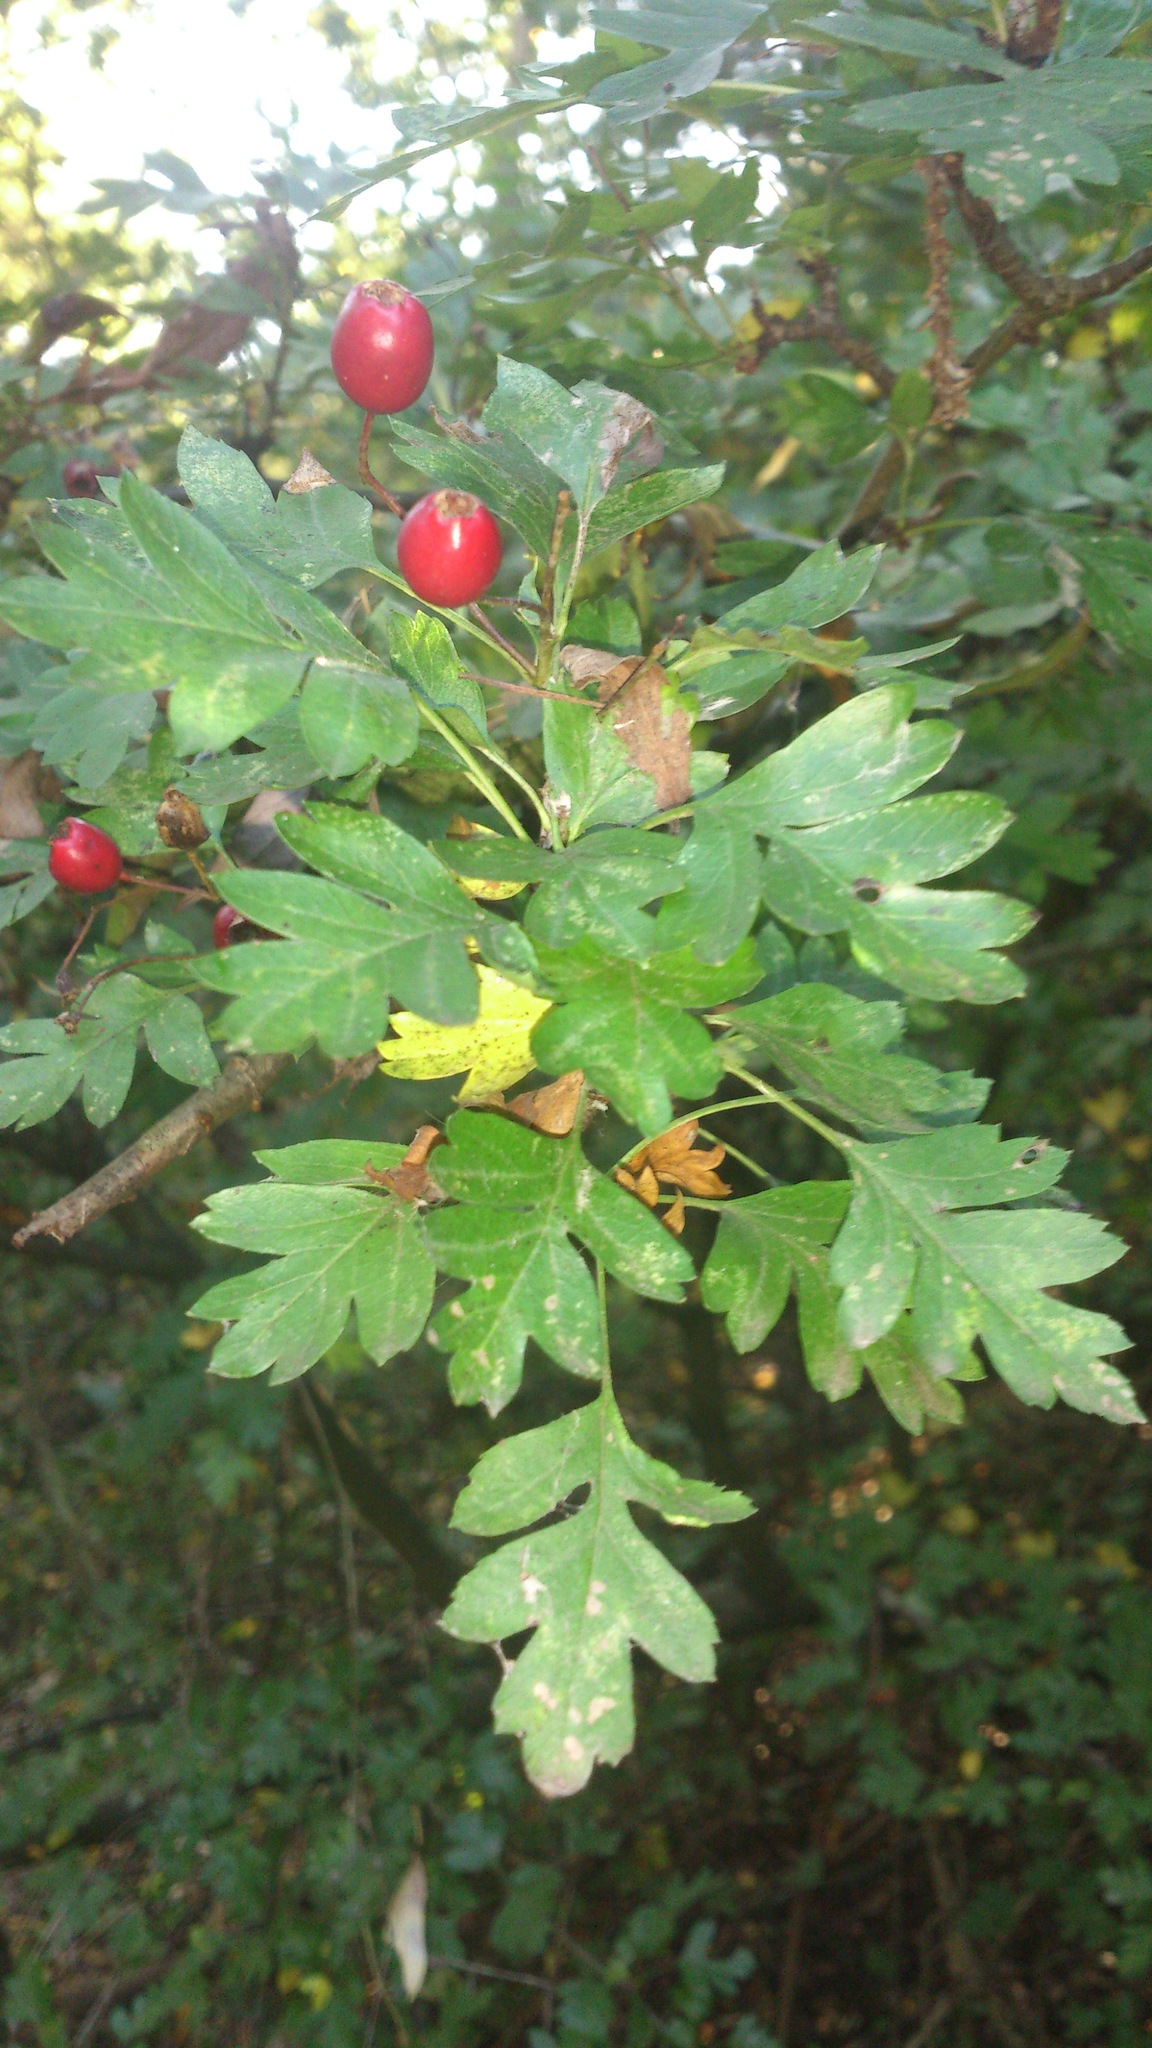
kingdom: Plantae
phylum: Tracheophyta
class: Magnoliopsida
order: Rosales
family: Rosaceae
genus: Crataegus
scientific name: Crataegus monogyna
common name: Hawthorn
